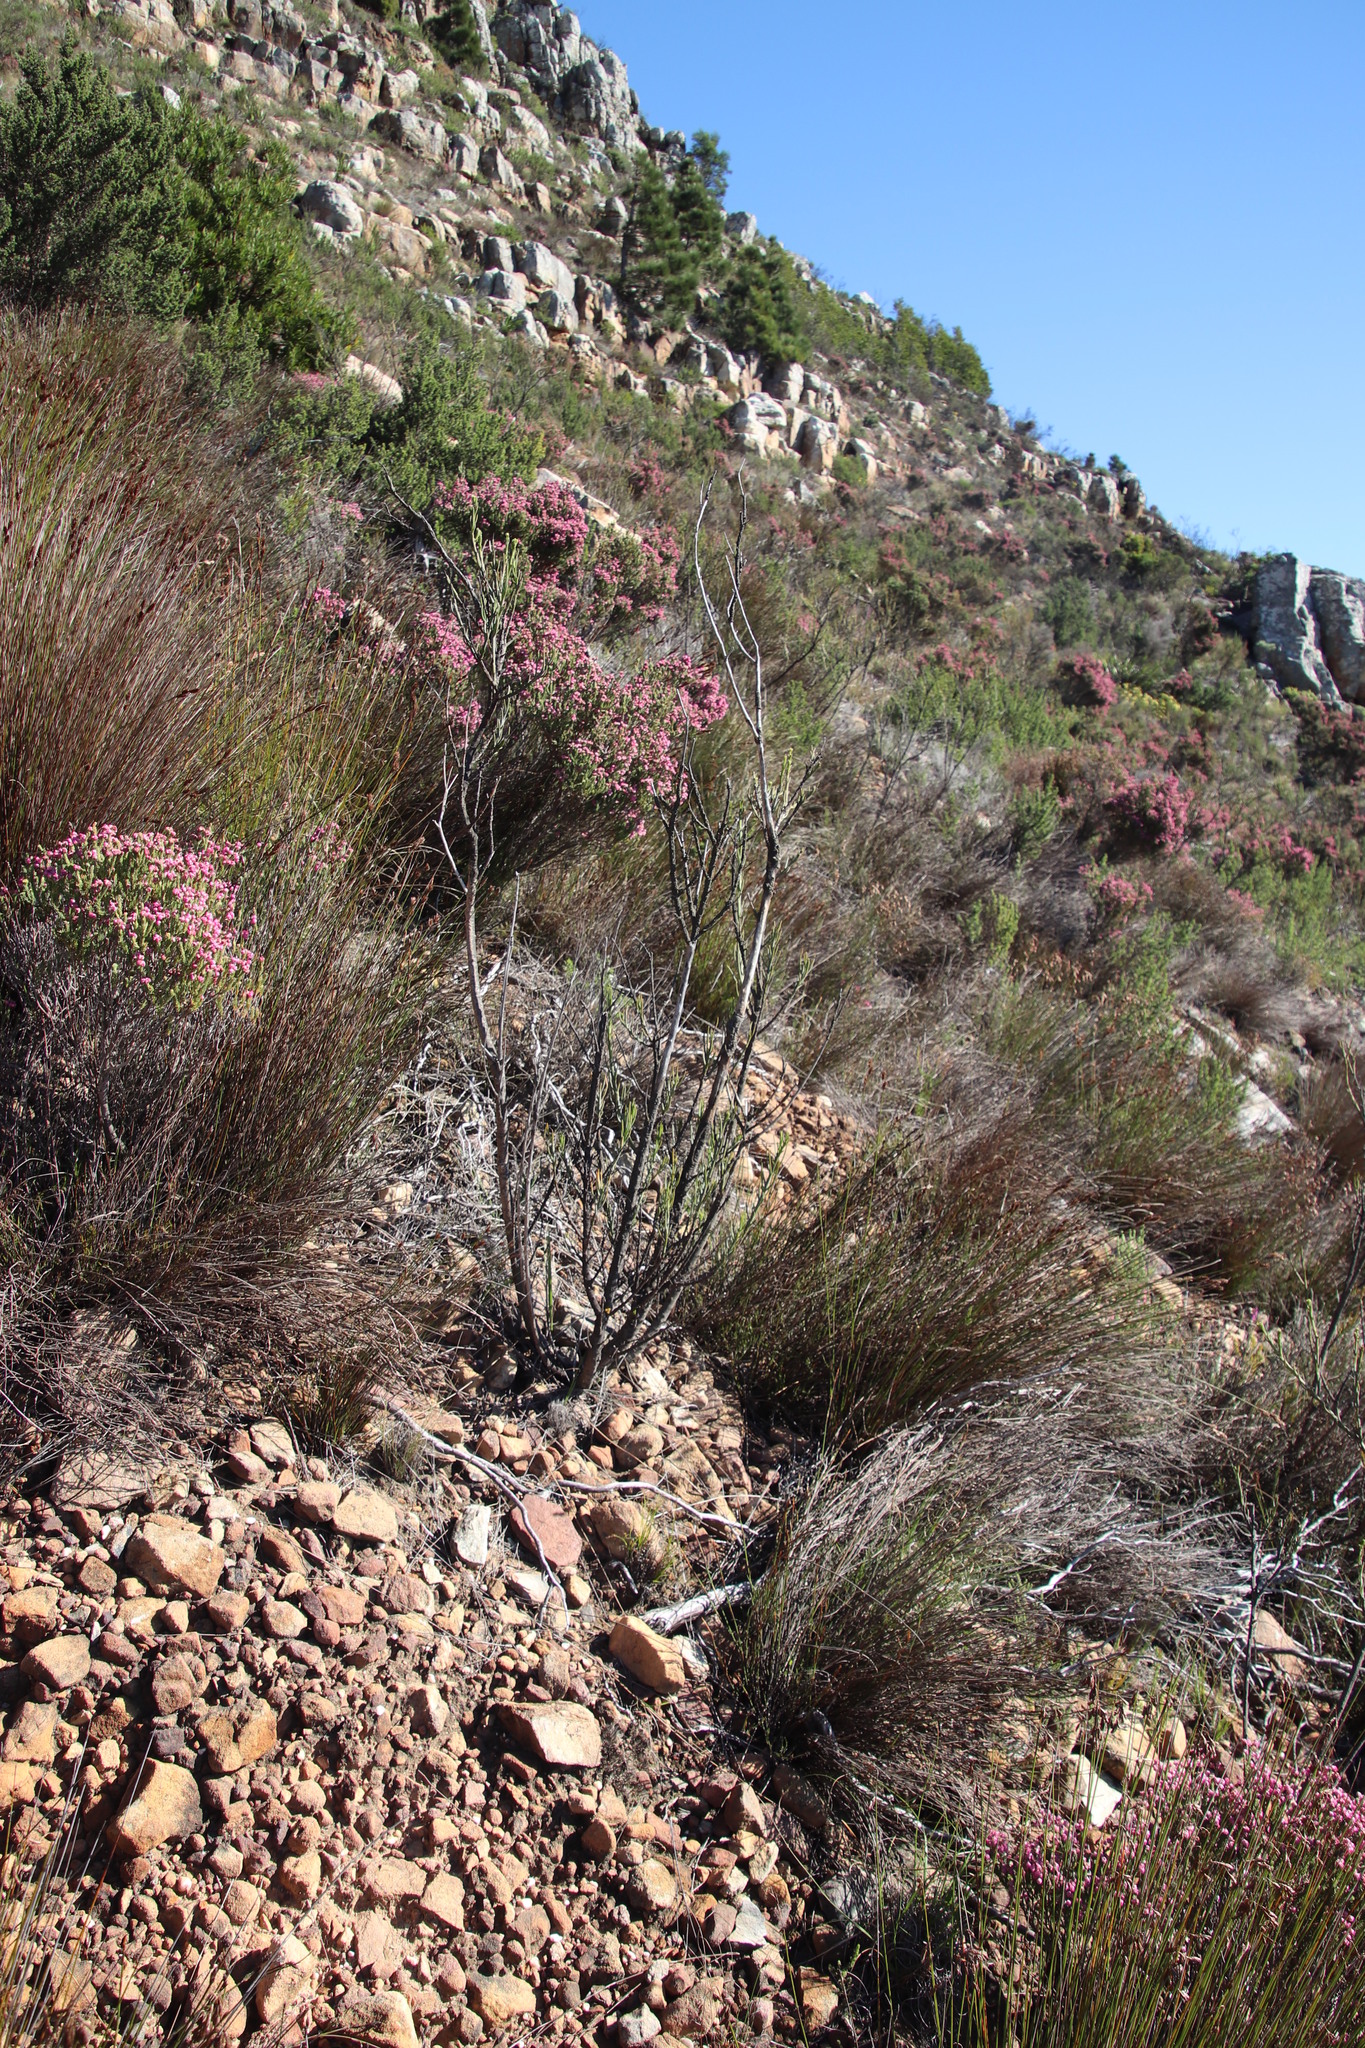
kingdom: Plantae
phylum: Tracheophyta
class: Magnoliopsida
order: Santalales
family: Thesiaceae
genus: Thesium
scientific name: Thesium strictum
